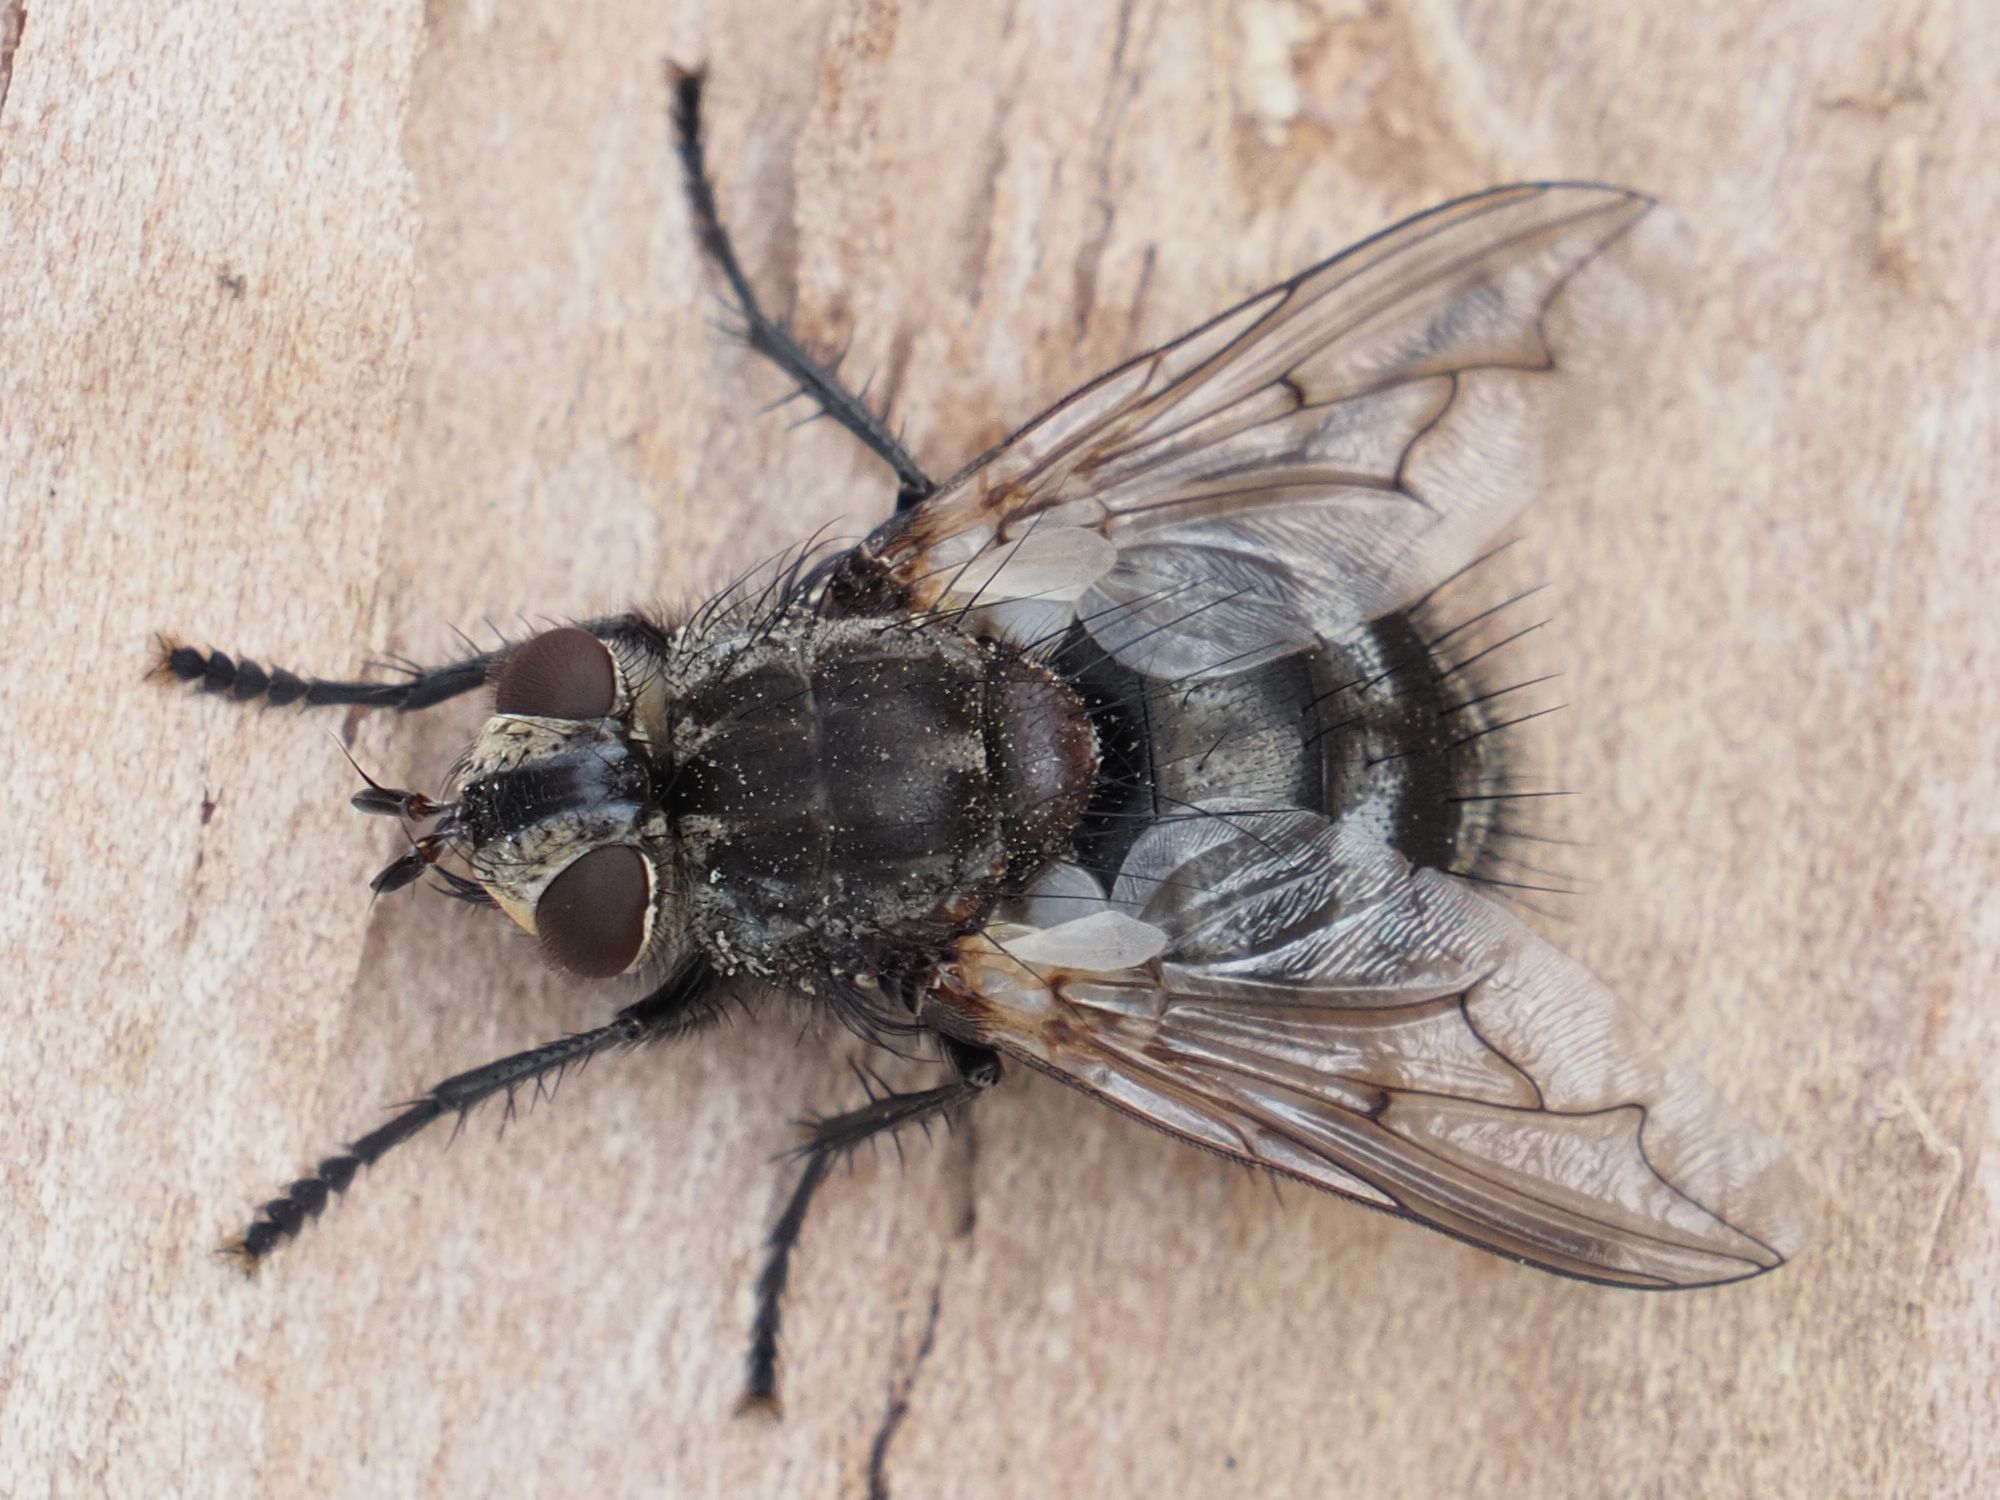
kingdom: Animalia
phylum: Arthropoda
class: Insecta
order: Diptera
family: Tachinidae
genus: Panzeria
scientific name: Panzeria puparum
